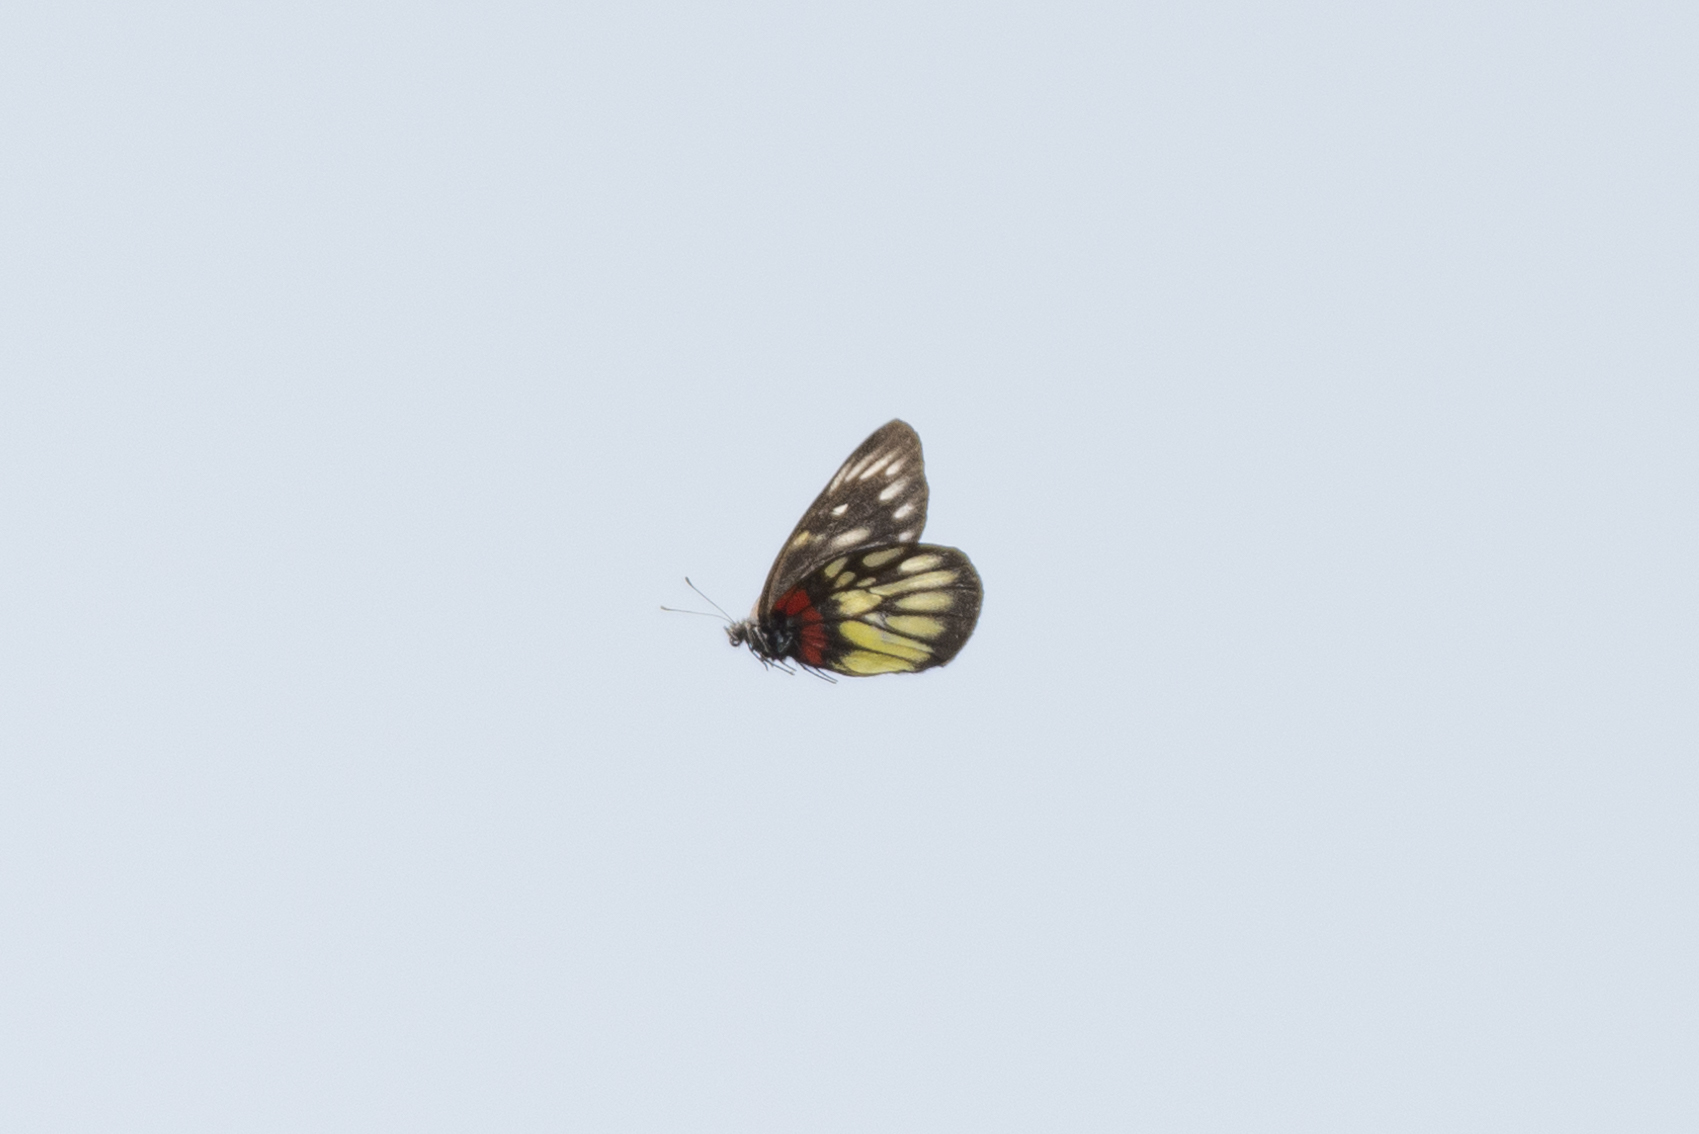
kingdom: Animalia
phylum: Arthropoda
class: Insecta
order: Lepidoptera
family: Pieridae
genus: Delias
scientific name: Delias pasithoe
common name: Red-base jezebel
